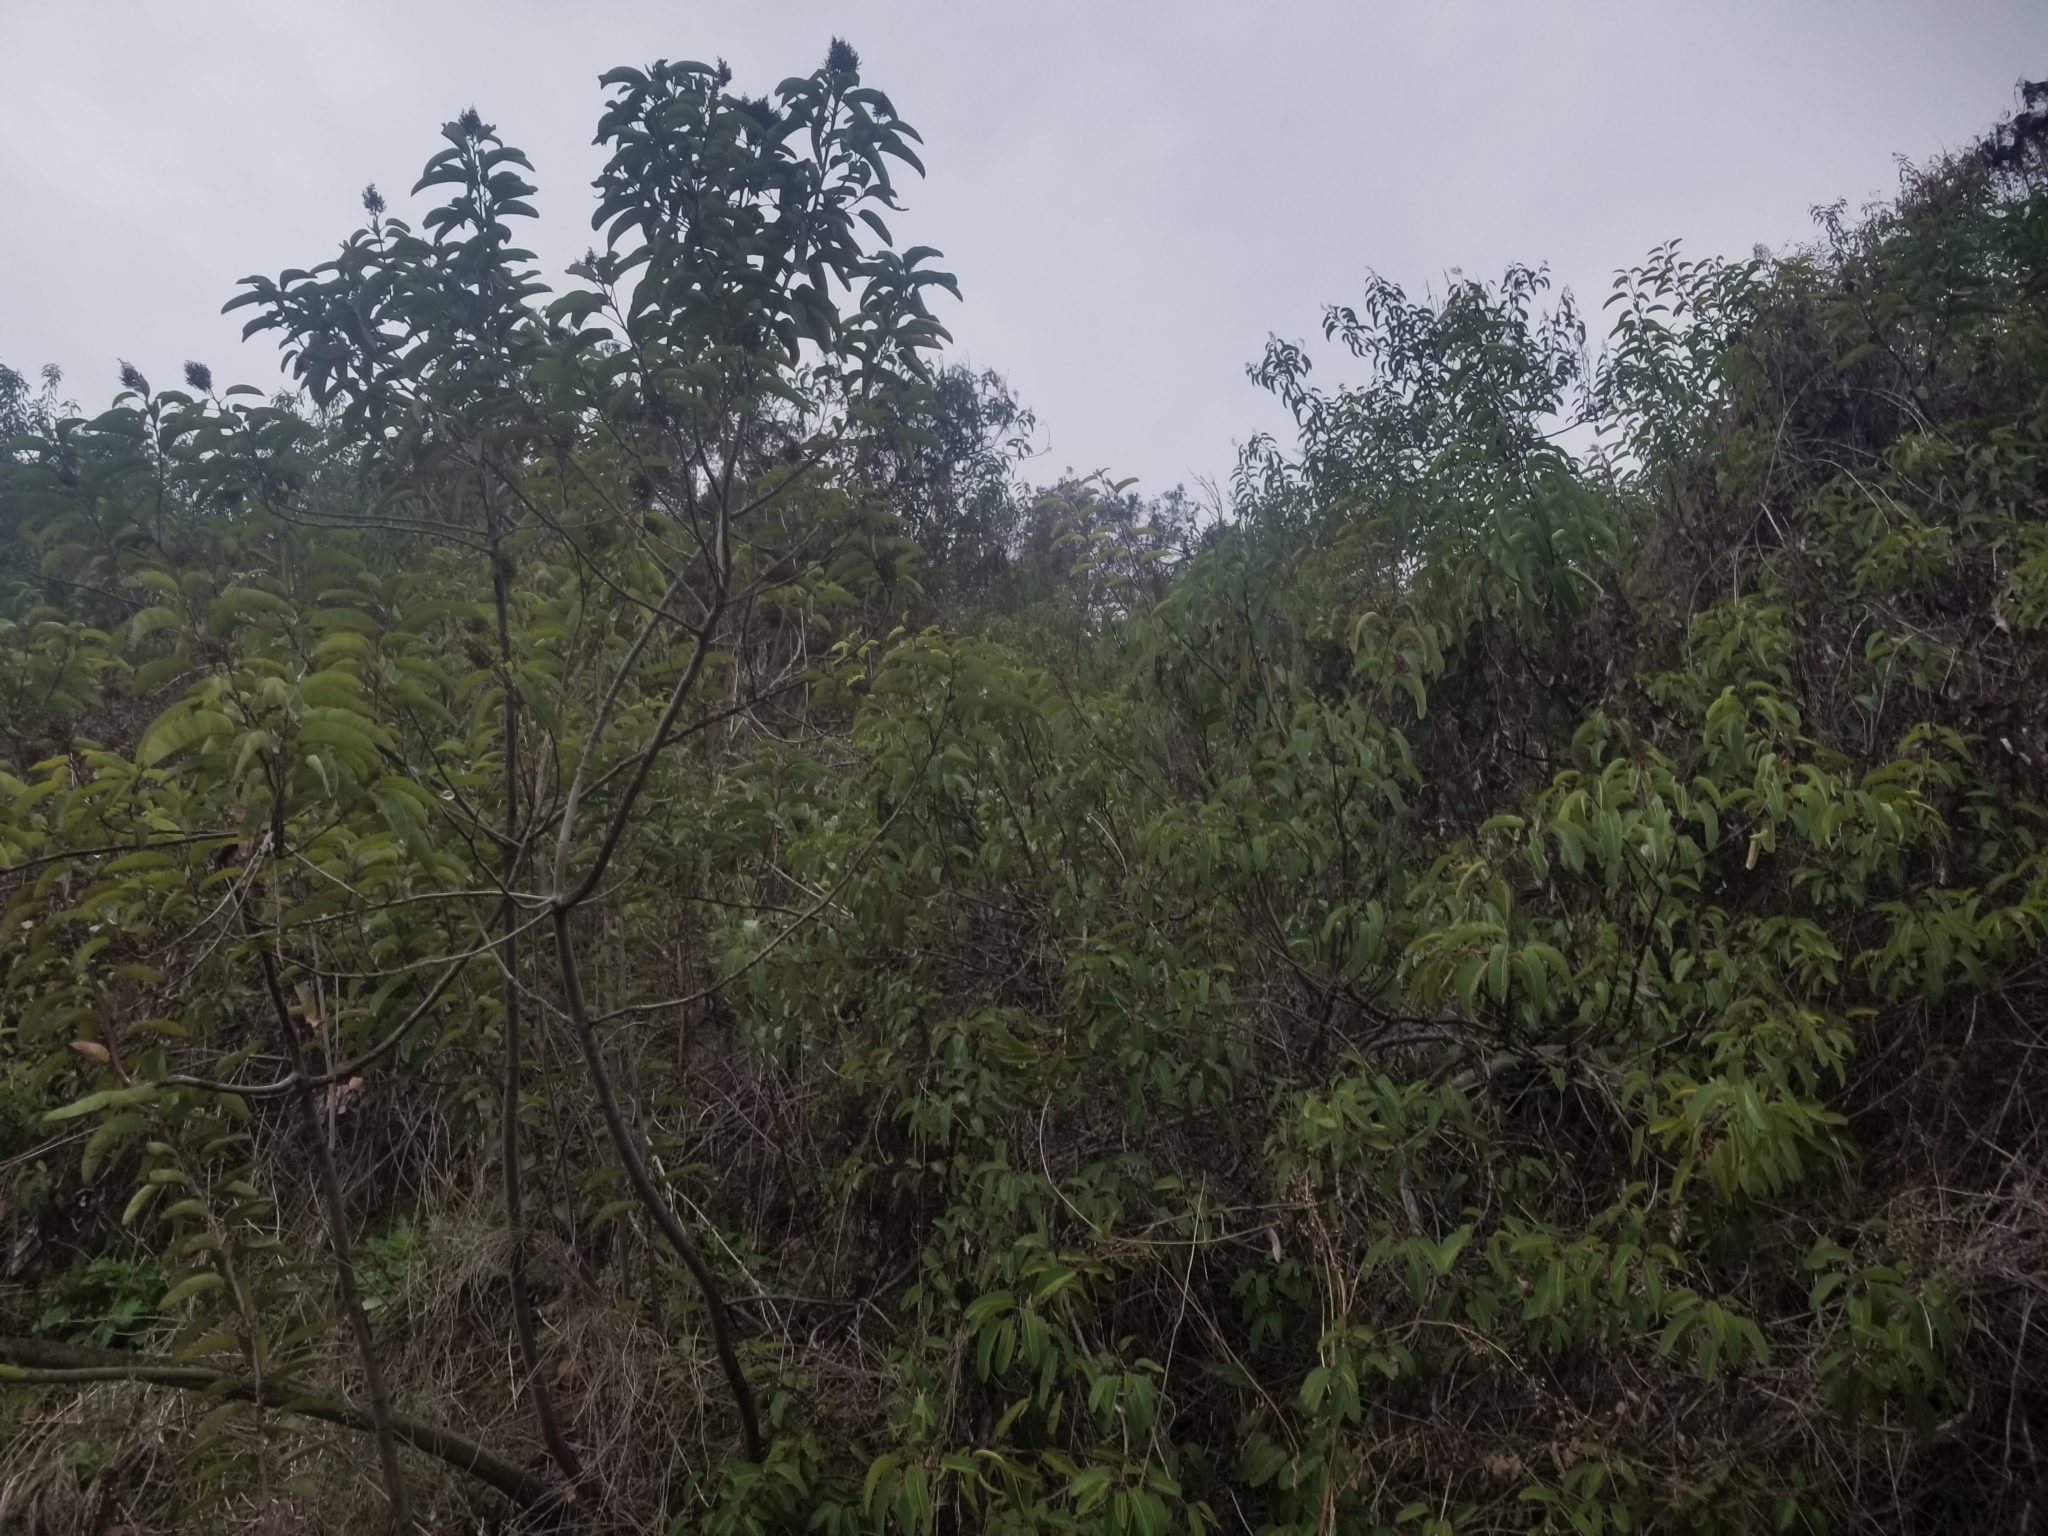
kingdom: Plantae
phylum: Tracheophyta
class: Magnoliopsida
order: Sapindales
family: Anacardiaceae
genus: Malosma
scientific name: Malosma laurina
